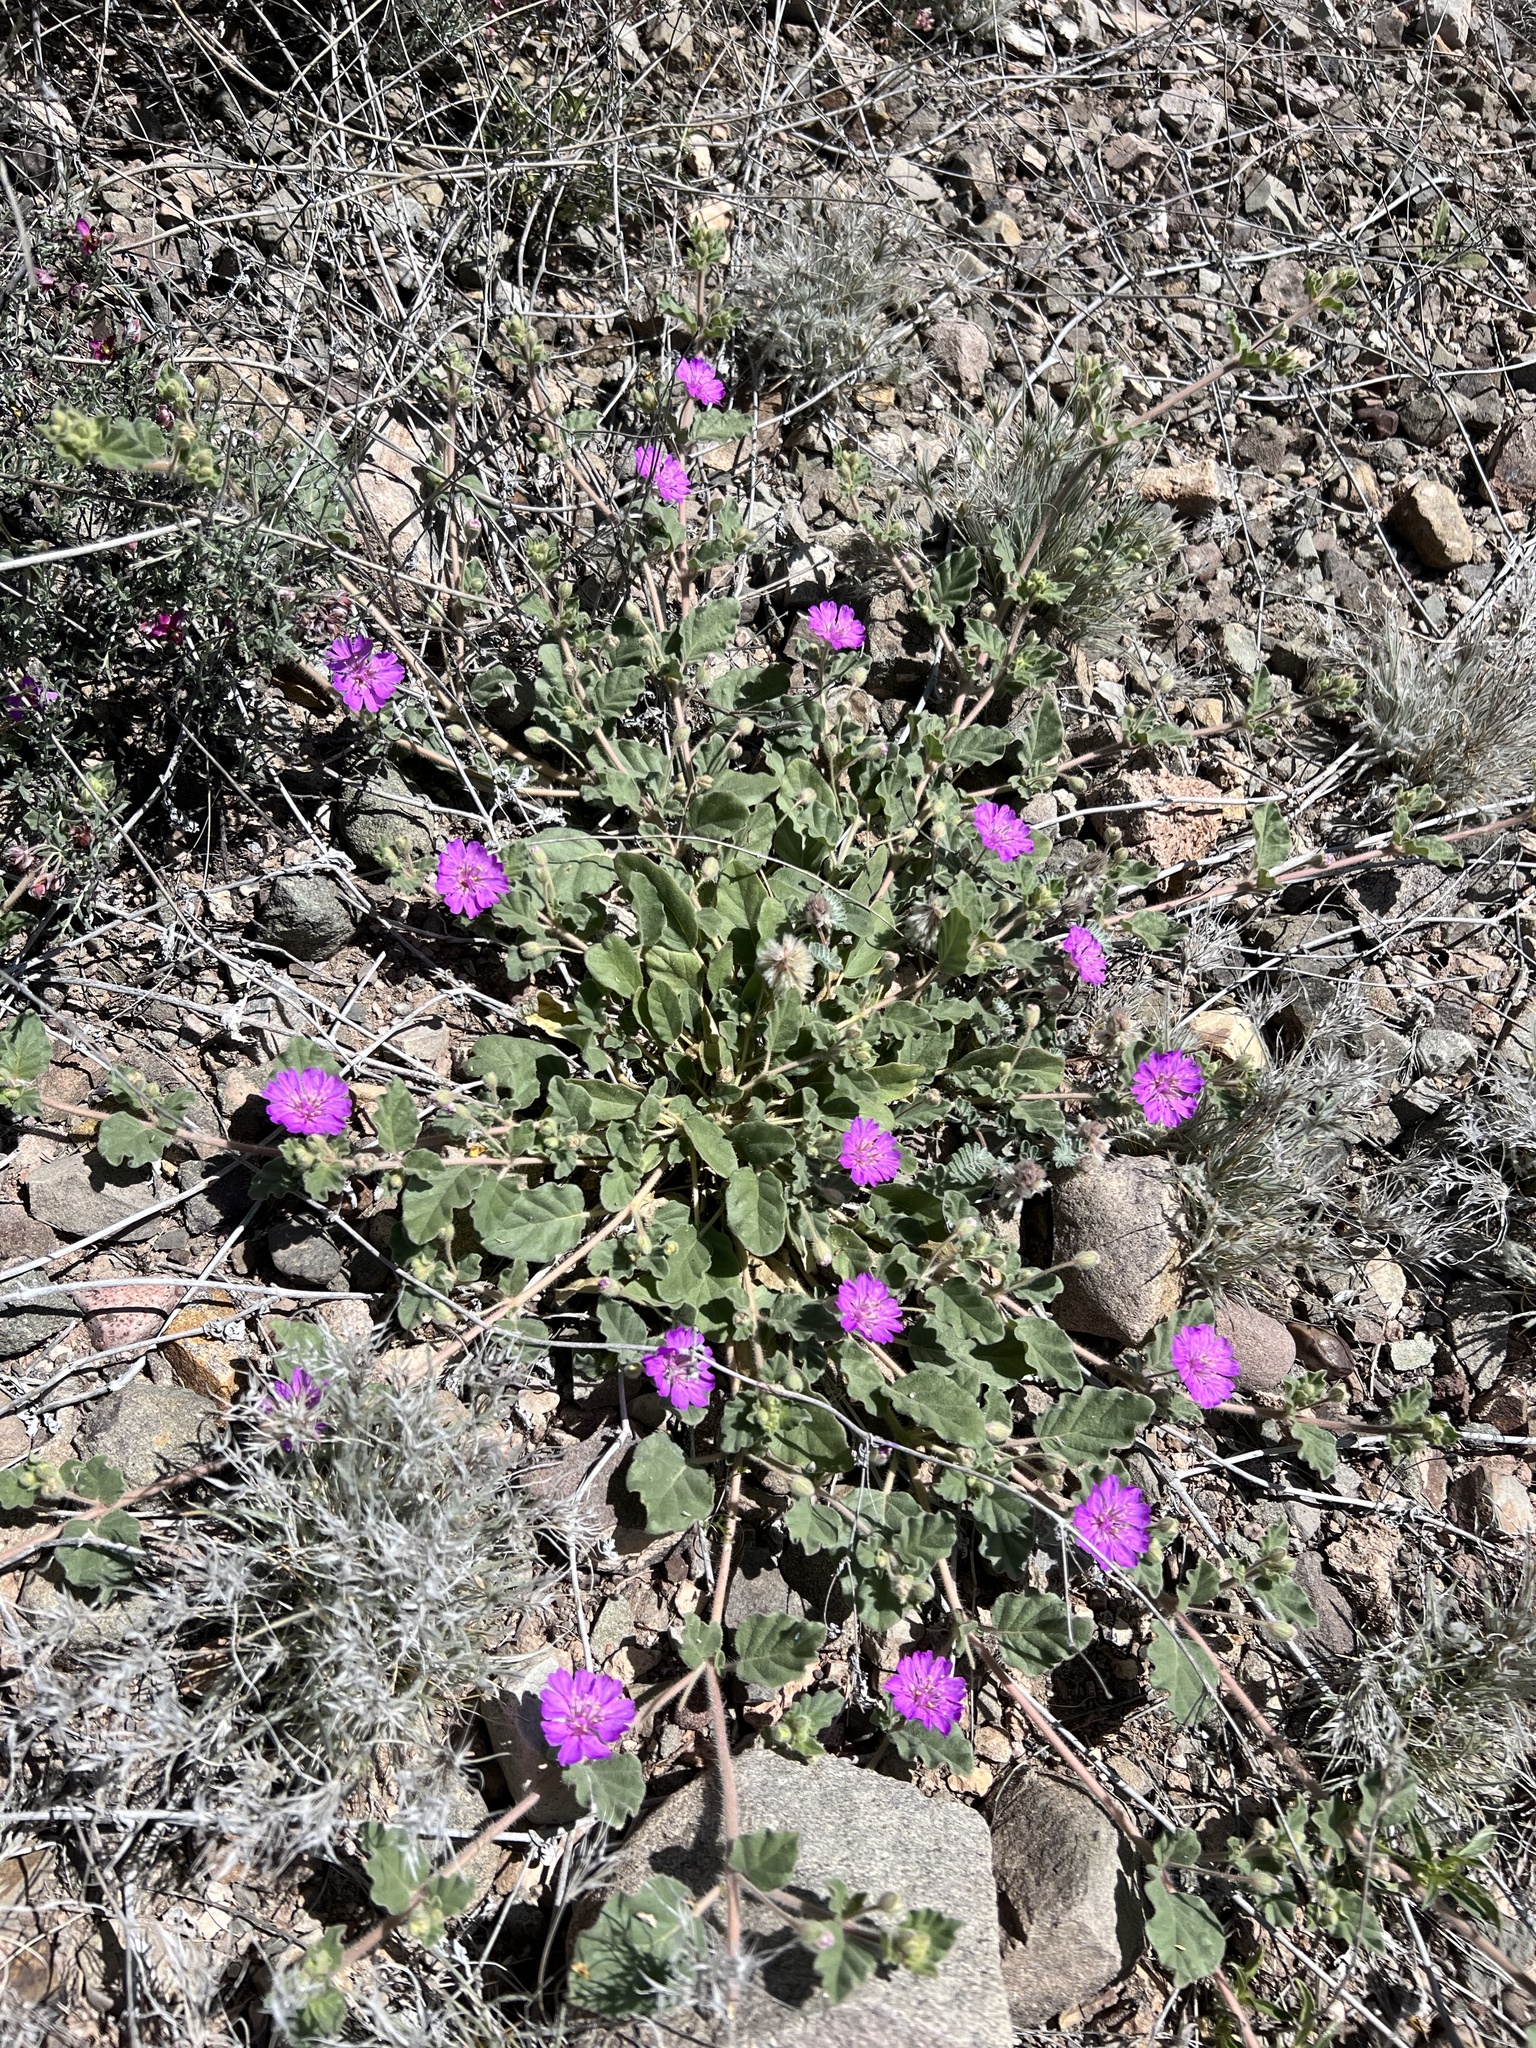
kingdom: Plantae
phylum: Tracheophyta
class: Magnoliopsida
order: Caryophyllales
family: Nyctaginaceae
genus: Allionia
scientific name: Allionia incarnata
